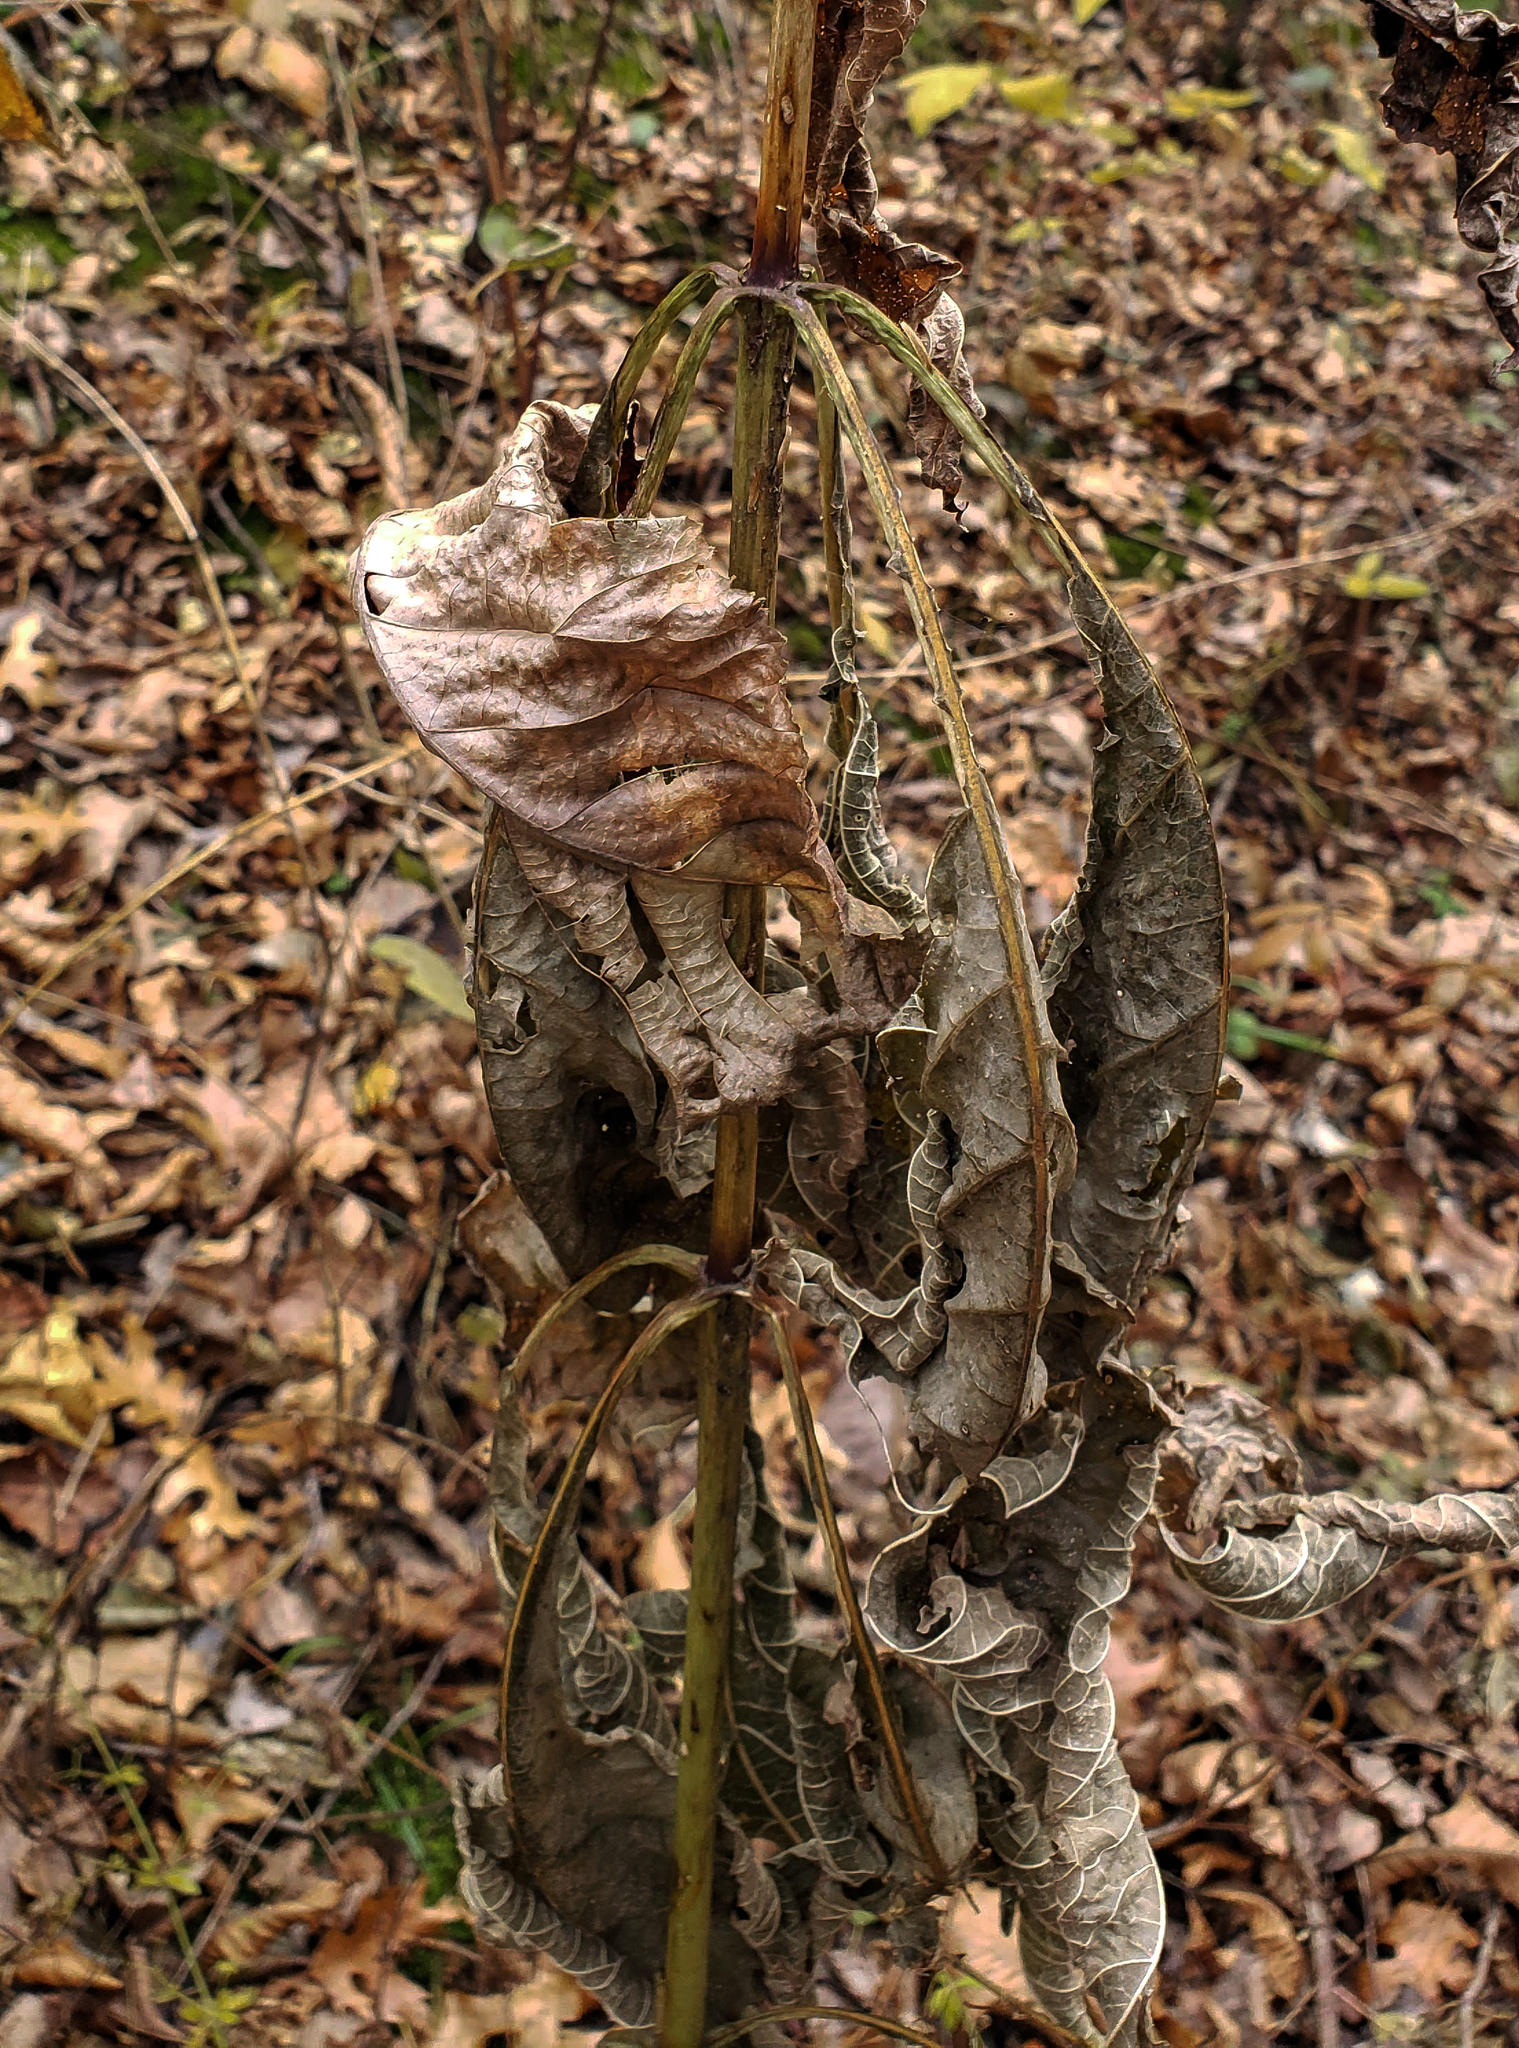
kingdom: Plantae
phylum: Tracheophyta
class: Magnoliopsida
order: Asterales
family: Asteraceae
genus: Eutrochium
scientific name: Eutrochium purpureum
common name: Gravelroot
